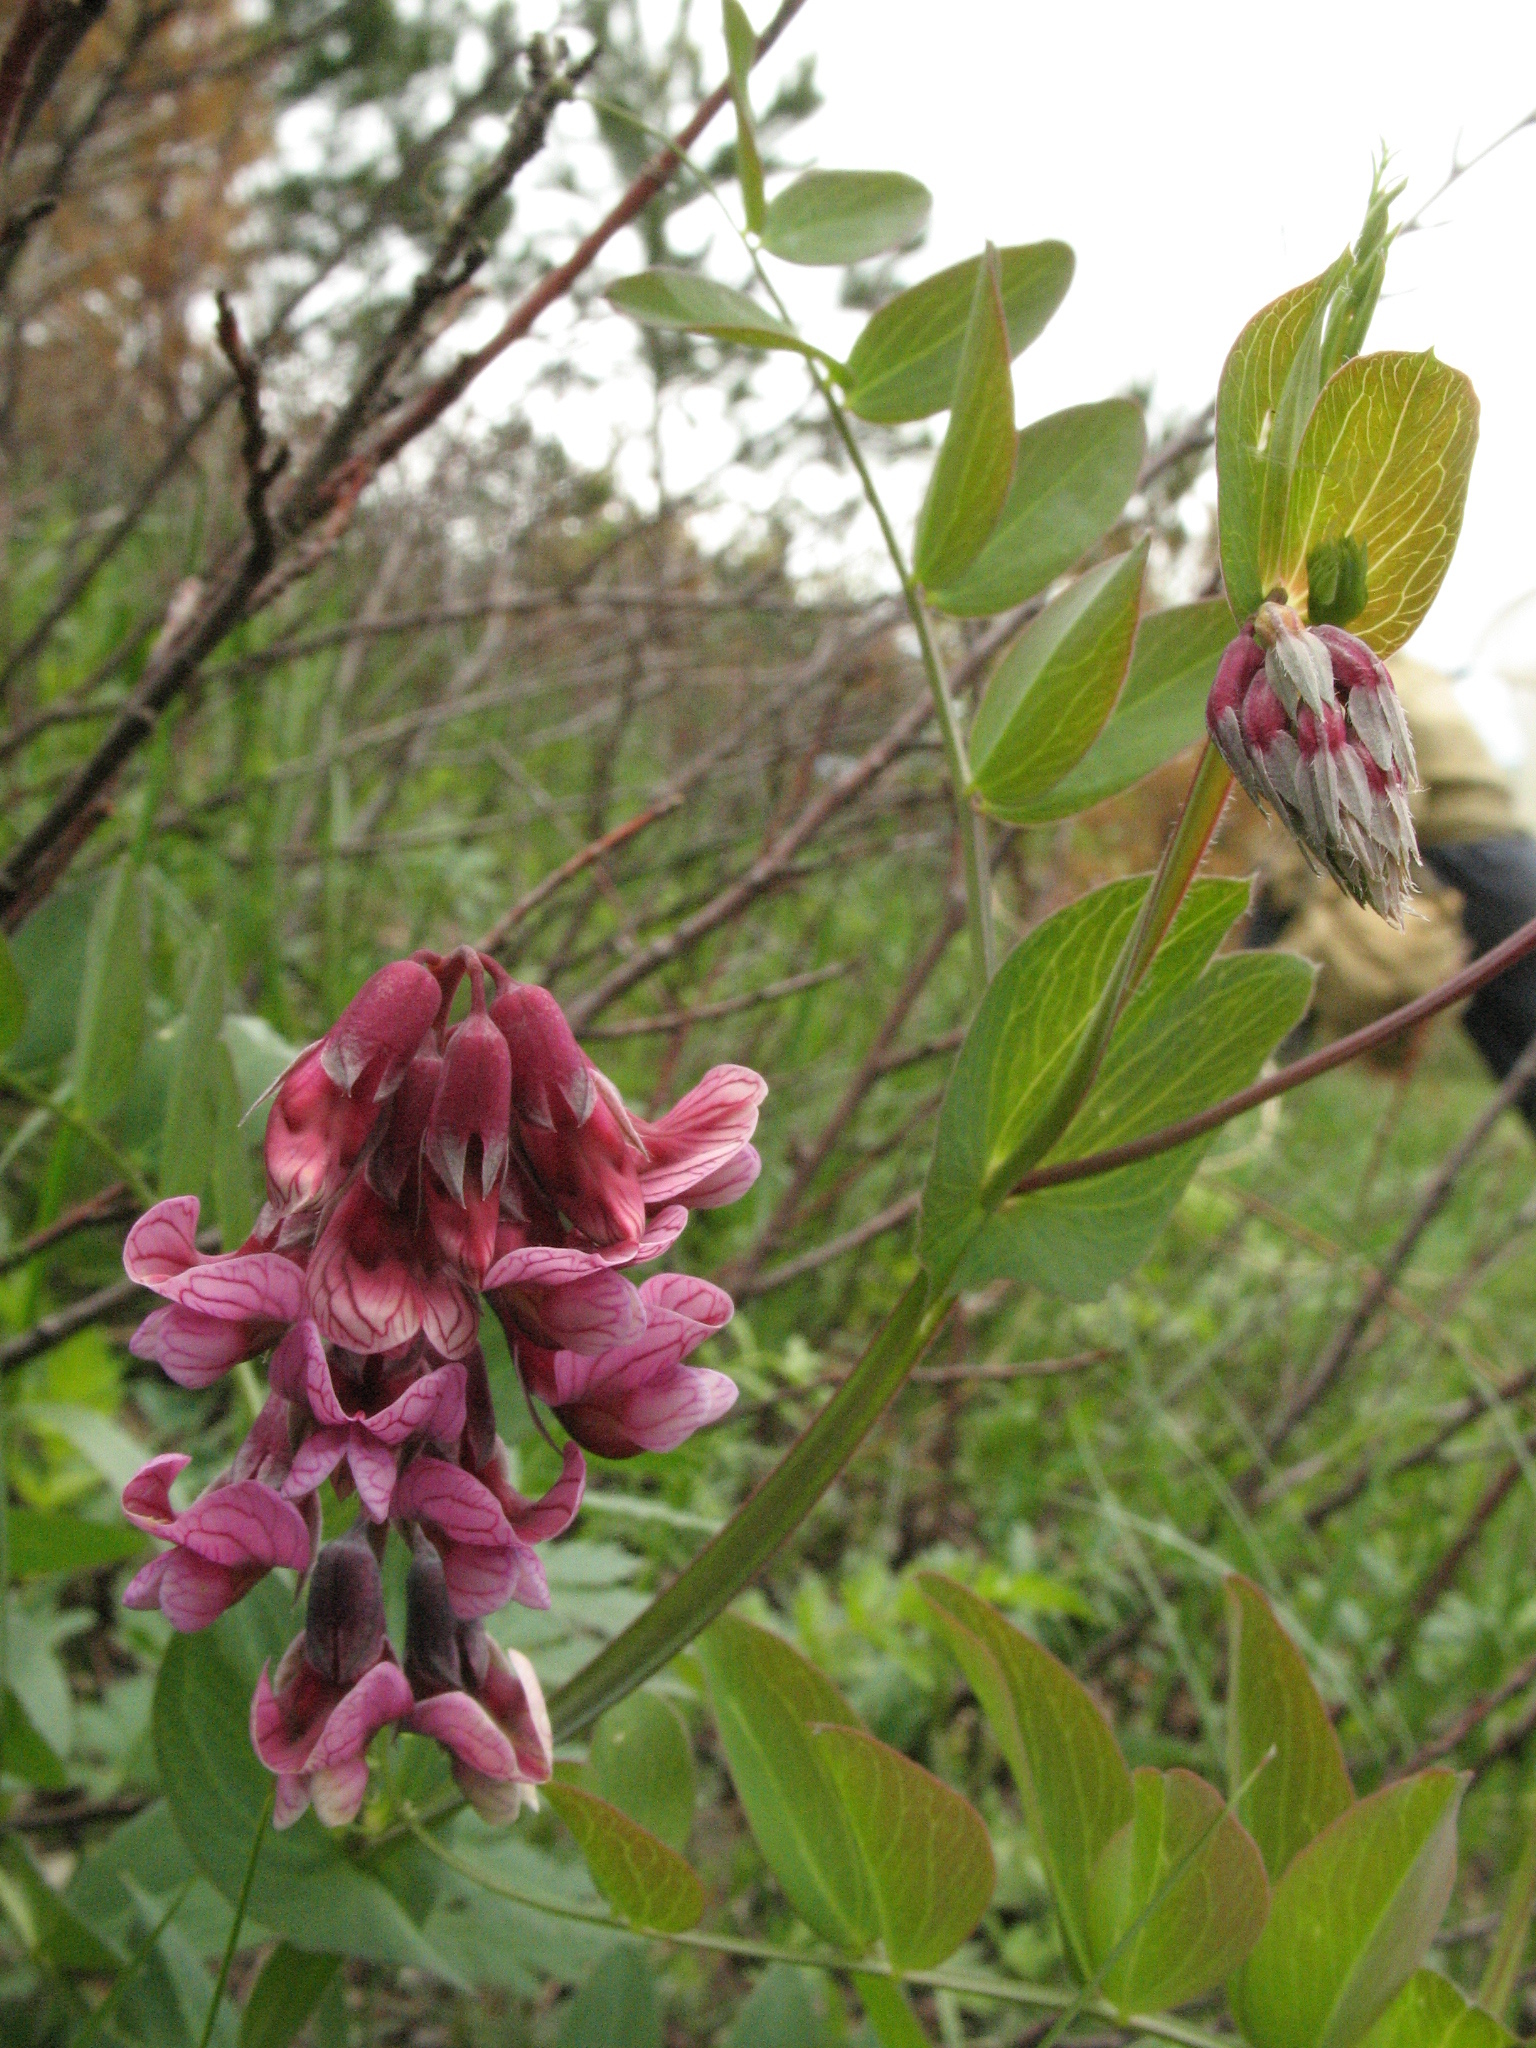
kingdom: Plantae
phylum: Tracheophyta
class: Magnoliopsida
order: Fabales
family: Fabaceae
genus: Lathyrus
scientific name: Lathyrus pisiformis
